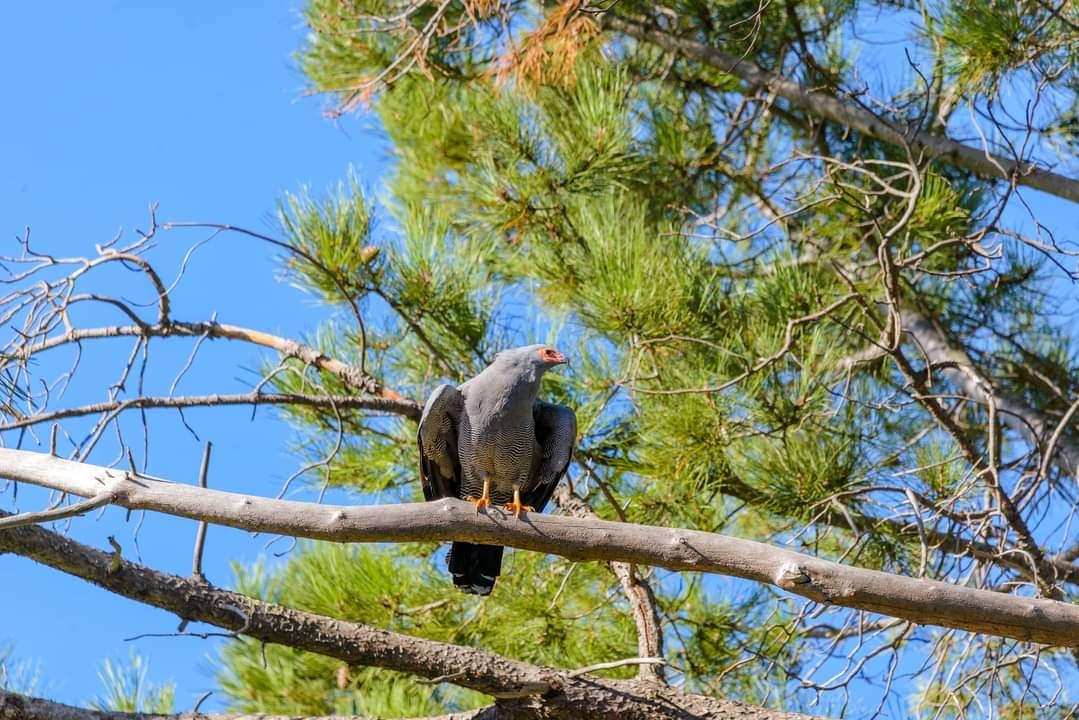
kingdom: Animalia
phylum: Chordata
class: Aves
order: Accipitriformes
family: Accipitridae
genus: Polyboroides
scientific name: Polyboroides typus
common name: African harrier-hawk
